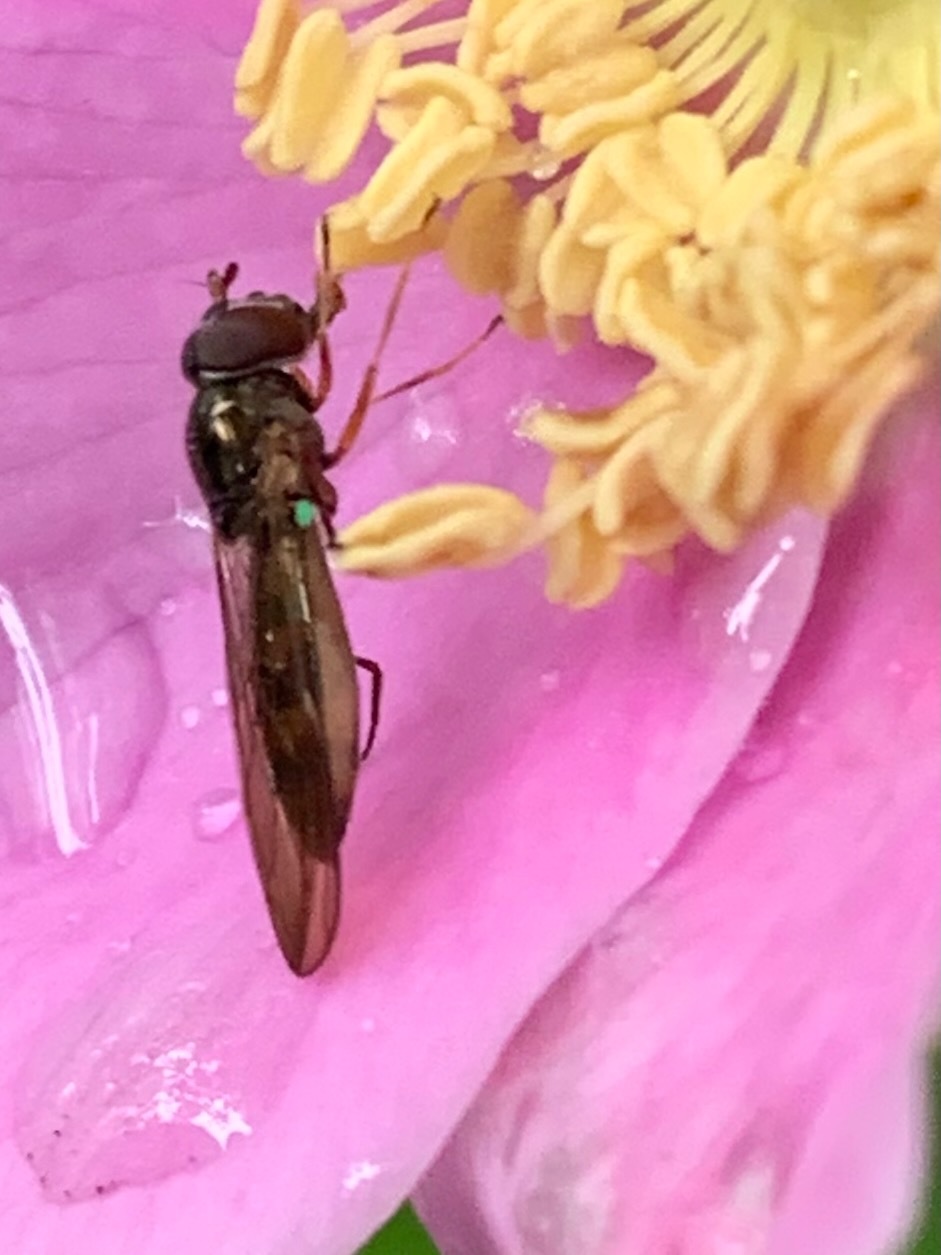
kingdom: Animalia
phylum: Arthropoda
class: Insecta
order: Diptera
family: Syrphidae
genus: Melanostoma
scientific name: Melanostoma mellina
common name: Hover fly
